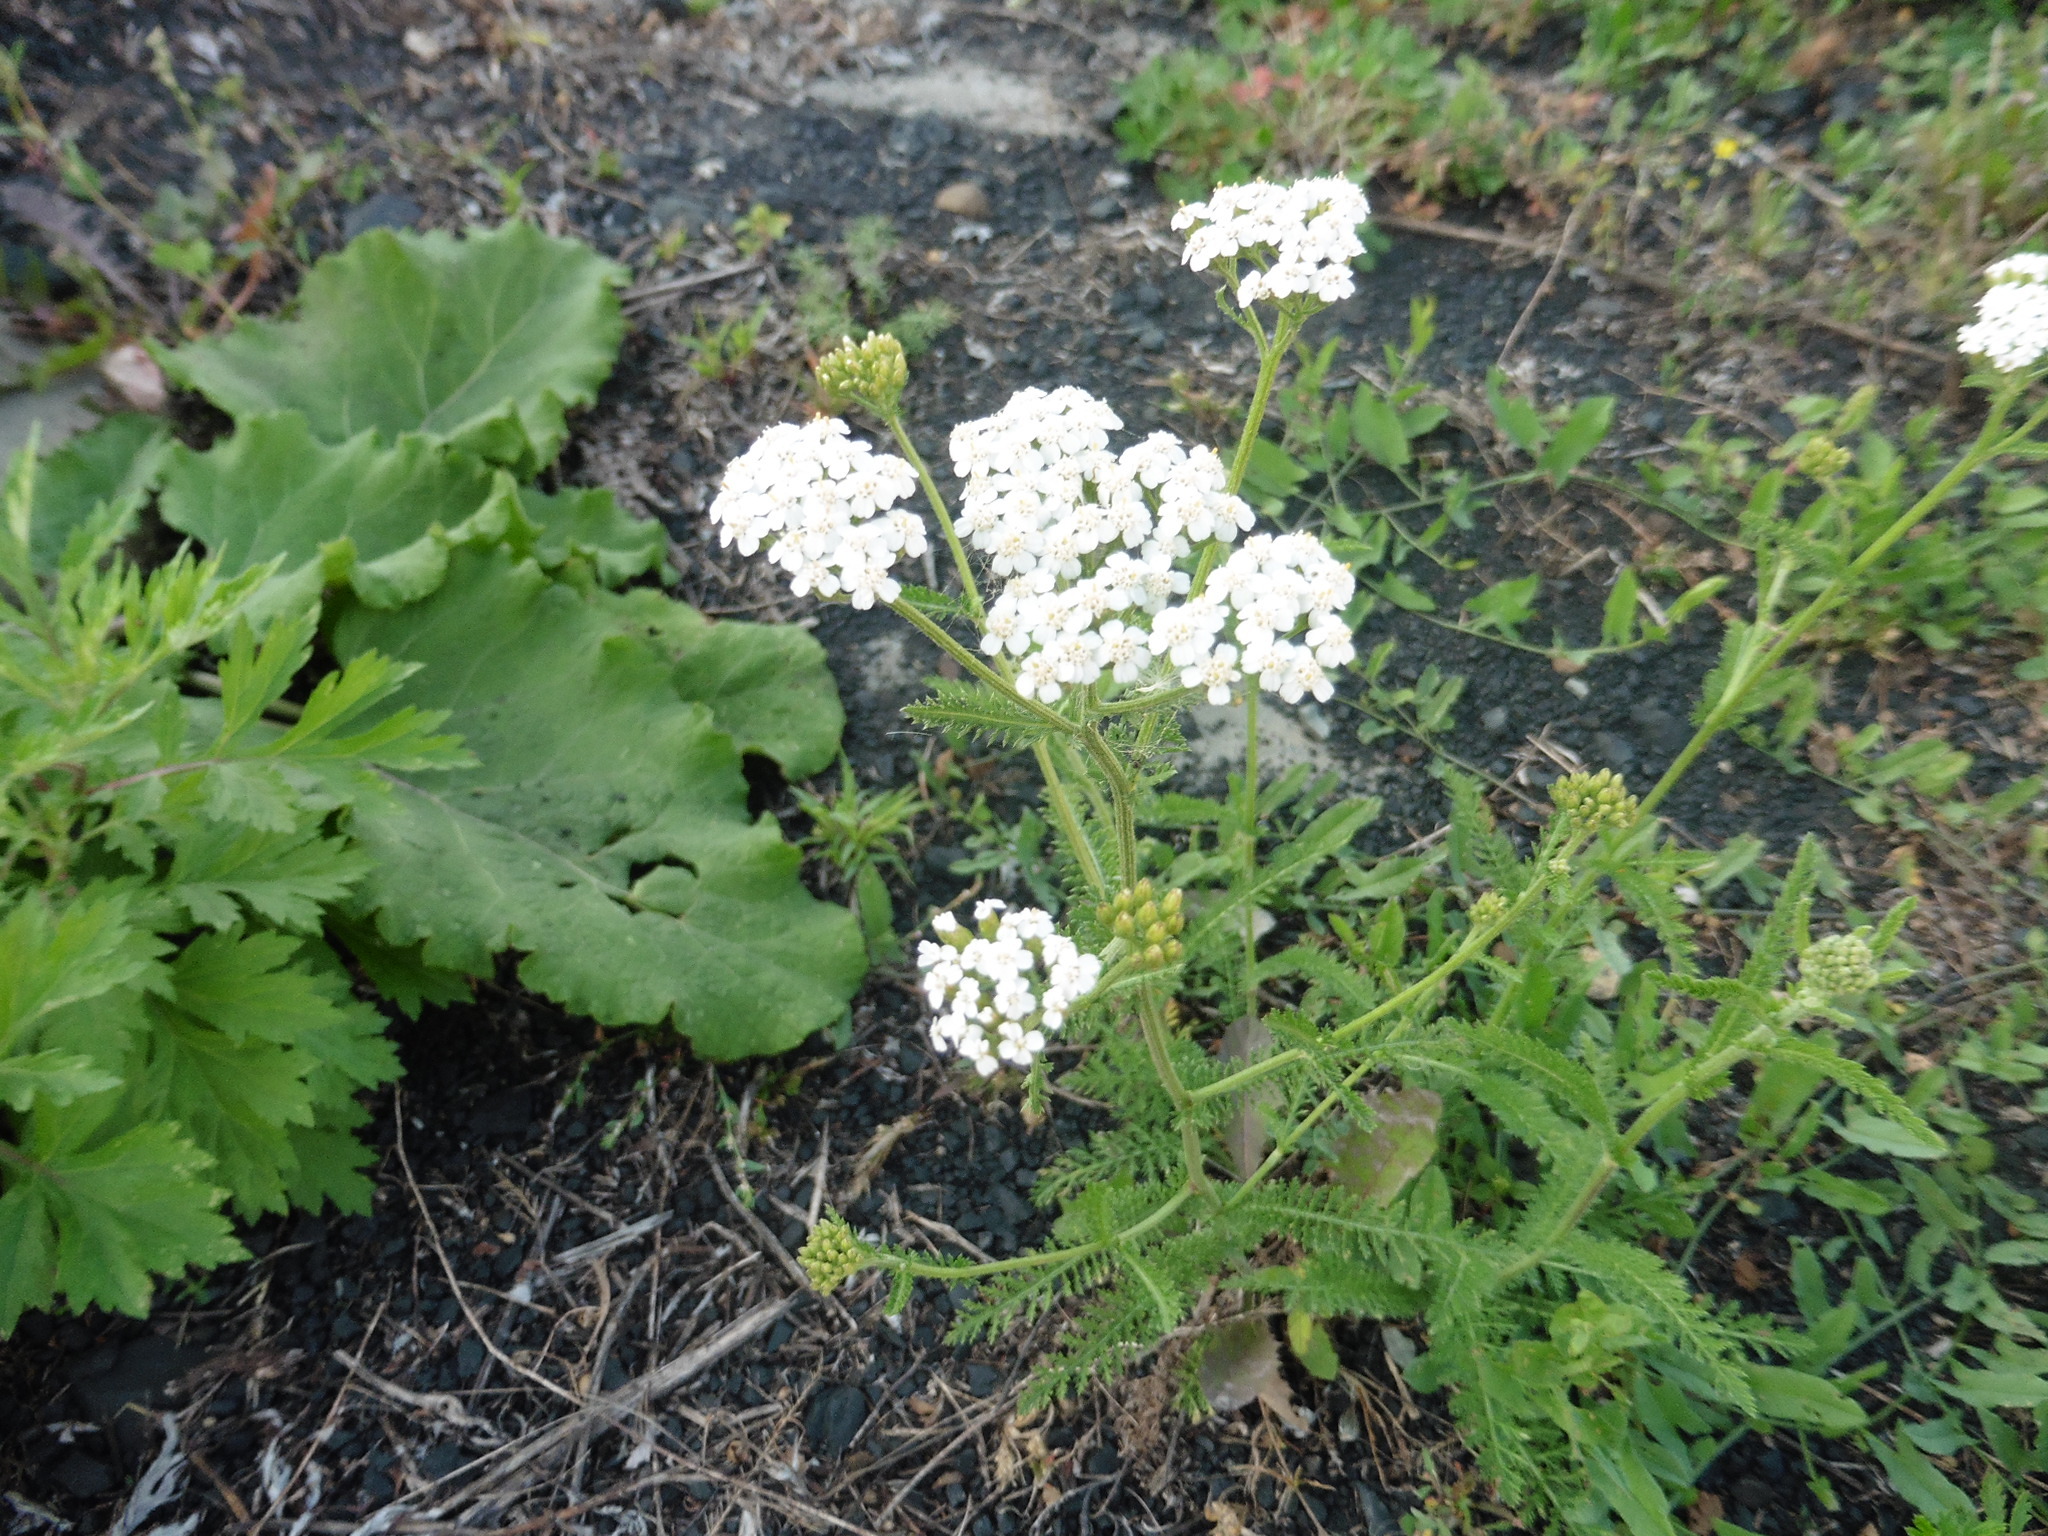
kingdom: Plantae
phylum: Tracheophyta
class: Magnoliopsida
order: Asterales
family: Asteraceae
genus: Achillea
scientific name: Achillea millefolium
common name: Yarrow
